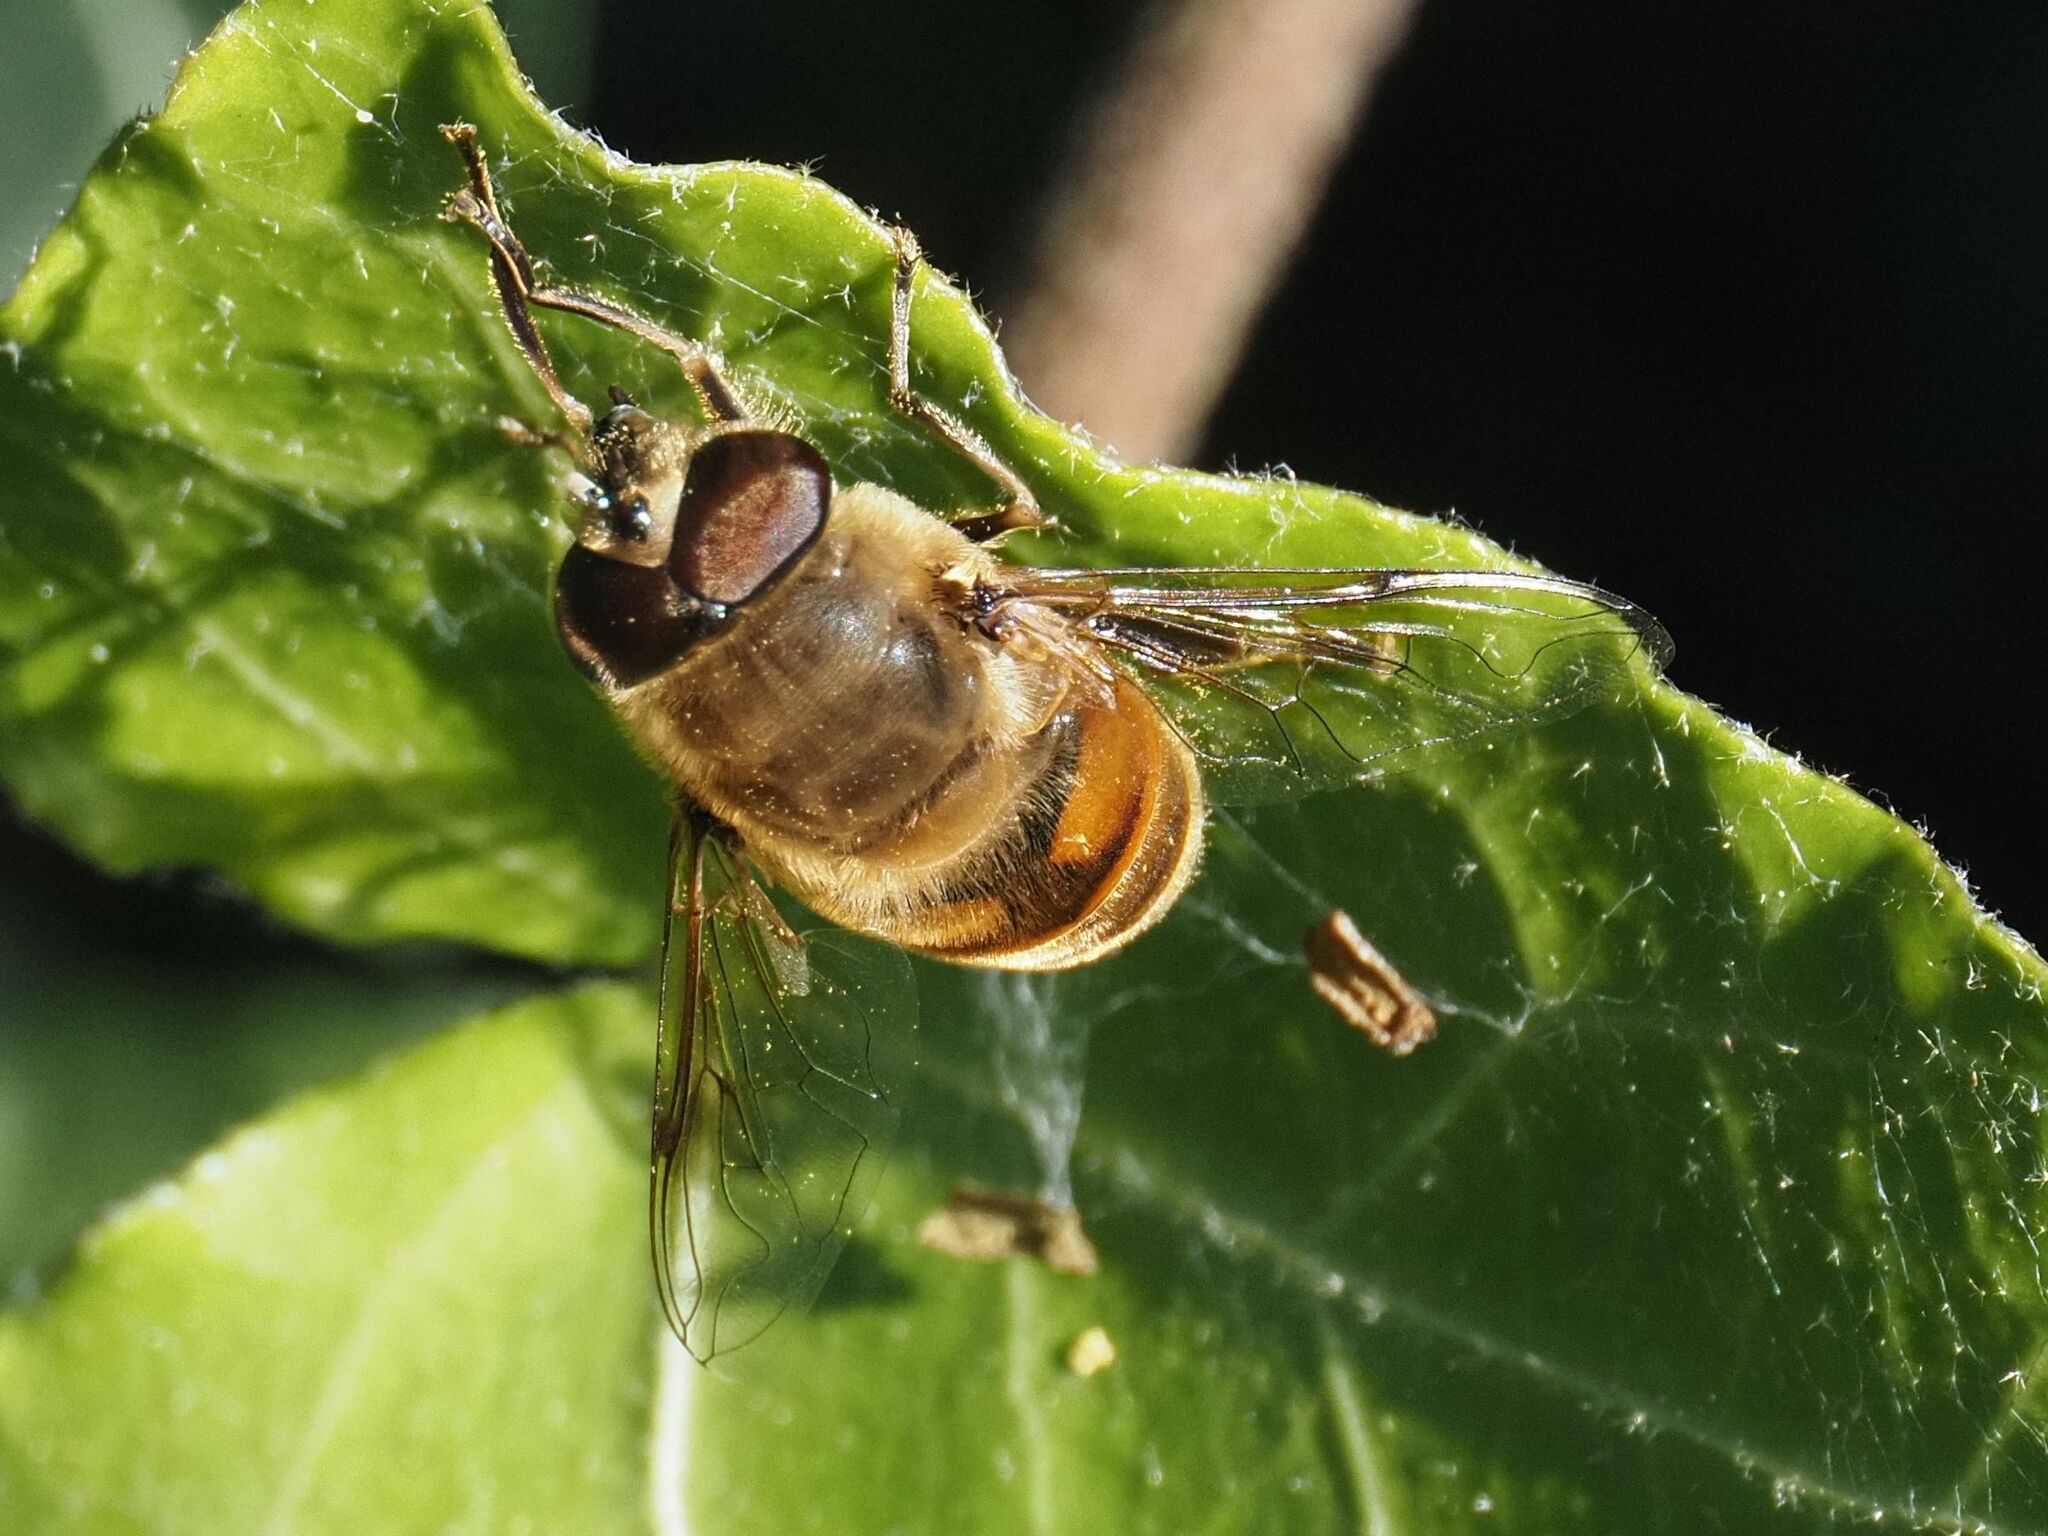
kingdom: Animalia
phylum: Arthropoda
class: Insecta
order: Diptera
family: Syrphidae
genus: Eristalis
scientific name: Eristalis tenax
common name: Drone fly
